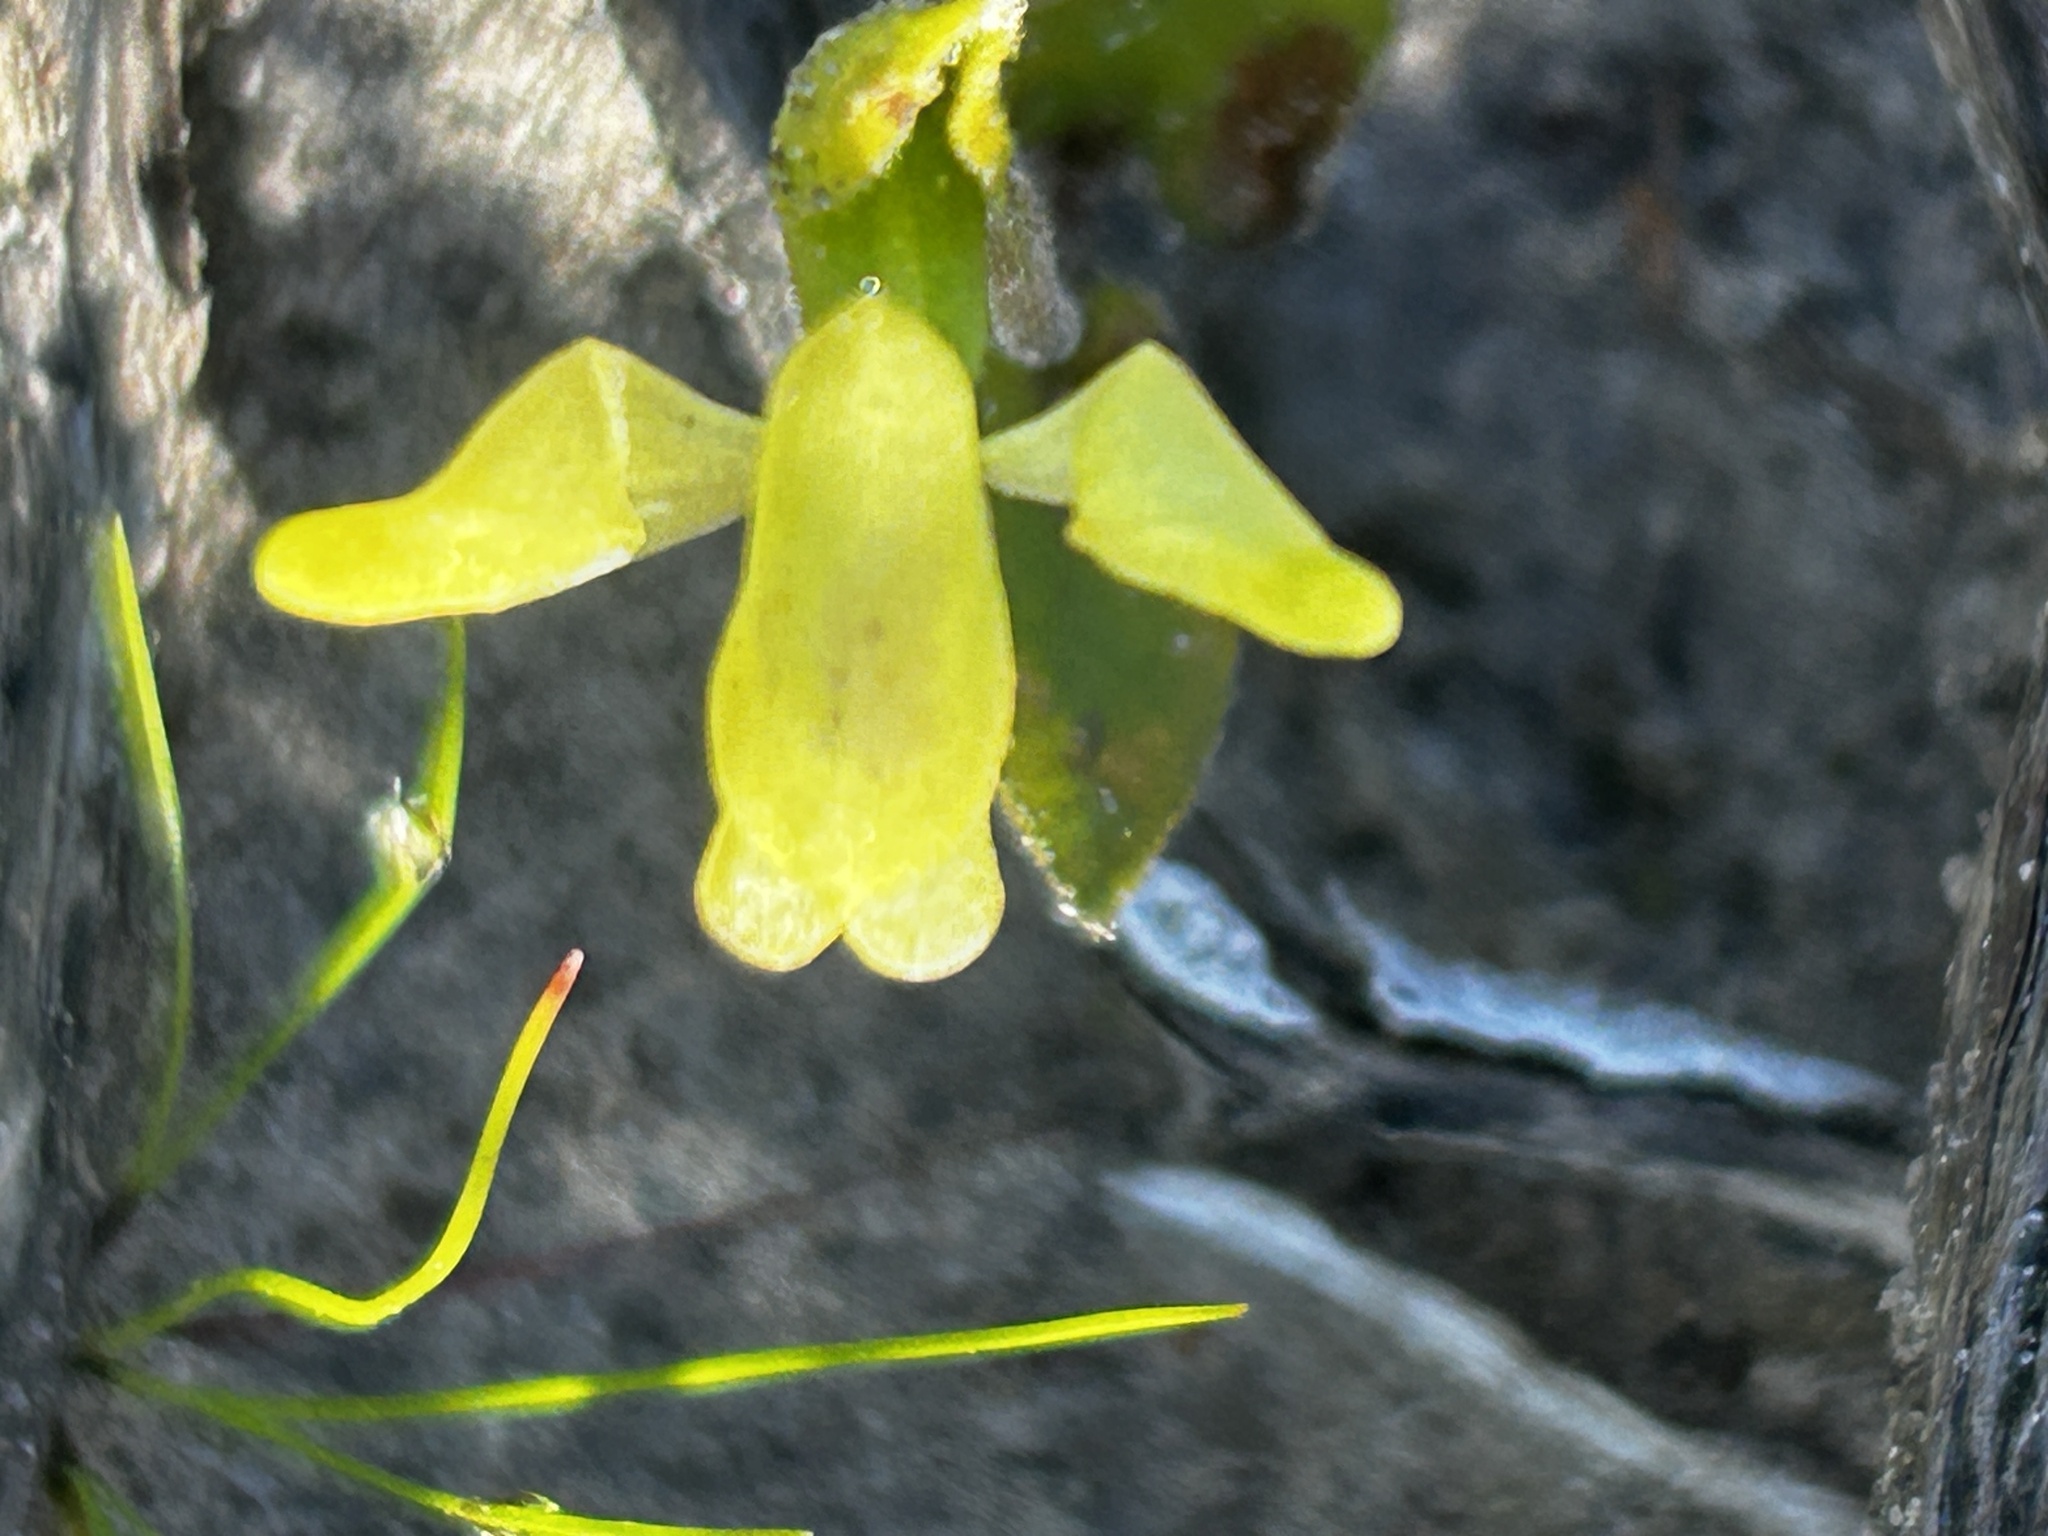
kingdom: Plantae
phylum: Tracheophyta
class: Liliopsida
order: Asparagales
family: Orchidaceae
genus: Disperis
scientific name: Disperis villosa
